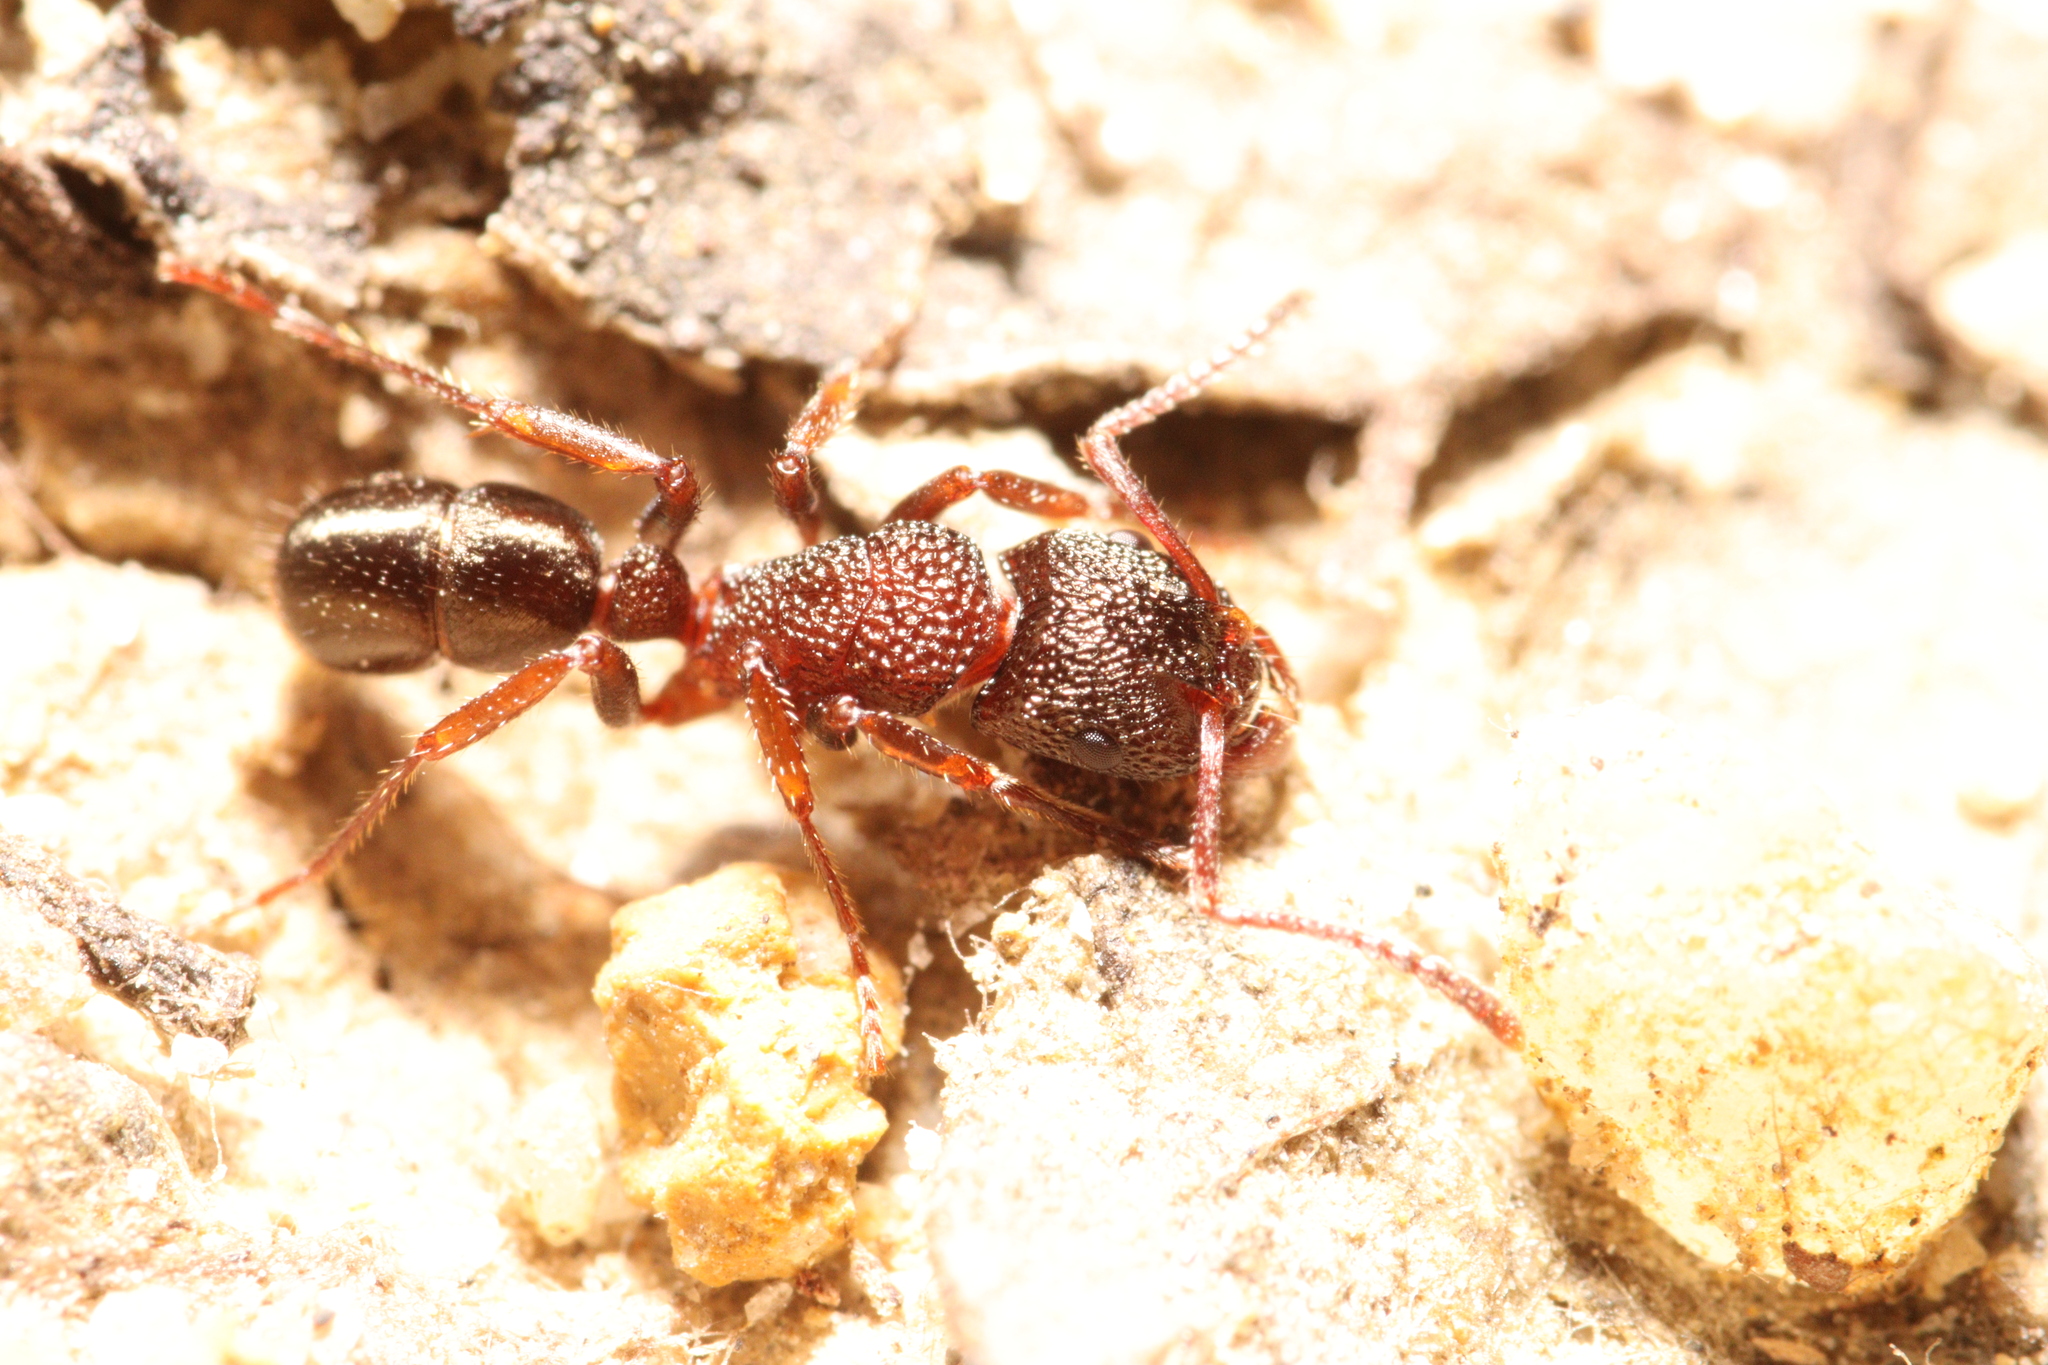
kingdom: Animalia
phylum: Arthropoda
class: Insecta
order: Hymenoptera
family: Formicidae
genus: Rhytidoponera
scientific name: Rhytidoponera tasmaniensis
